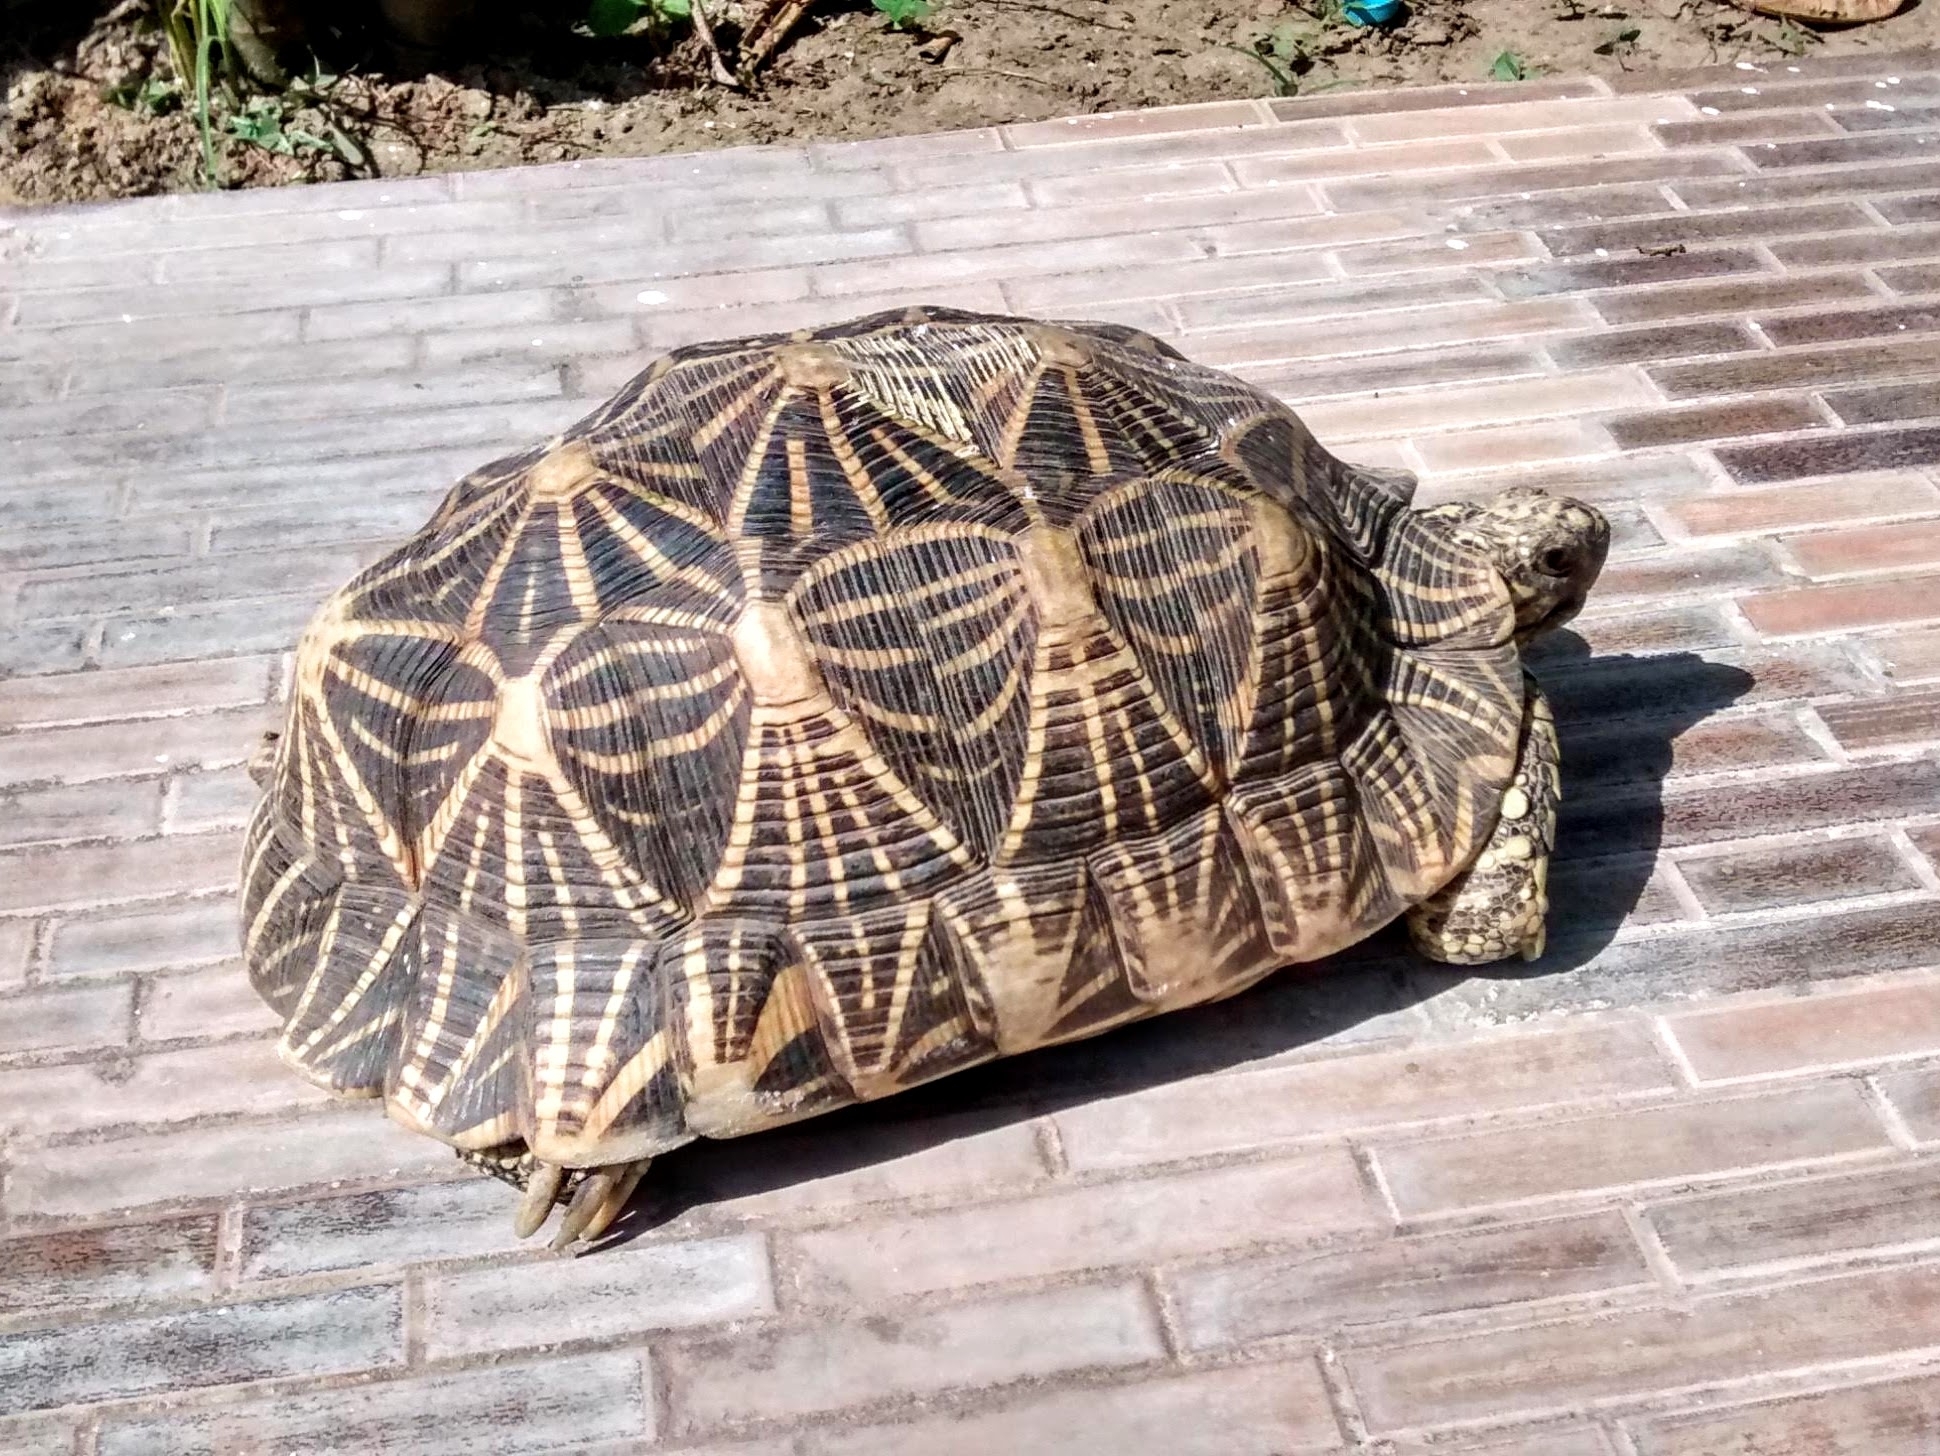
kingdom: Animalia
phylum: Chordata
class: Testudines
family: Testudinidae
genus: Geochelone
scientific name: Geochelone elegans
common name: Indian star tortoise
